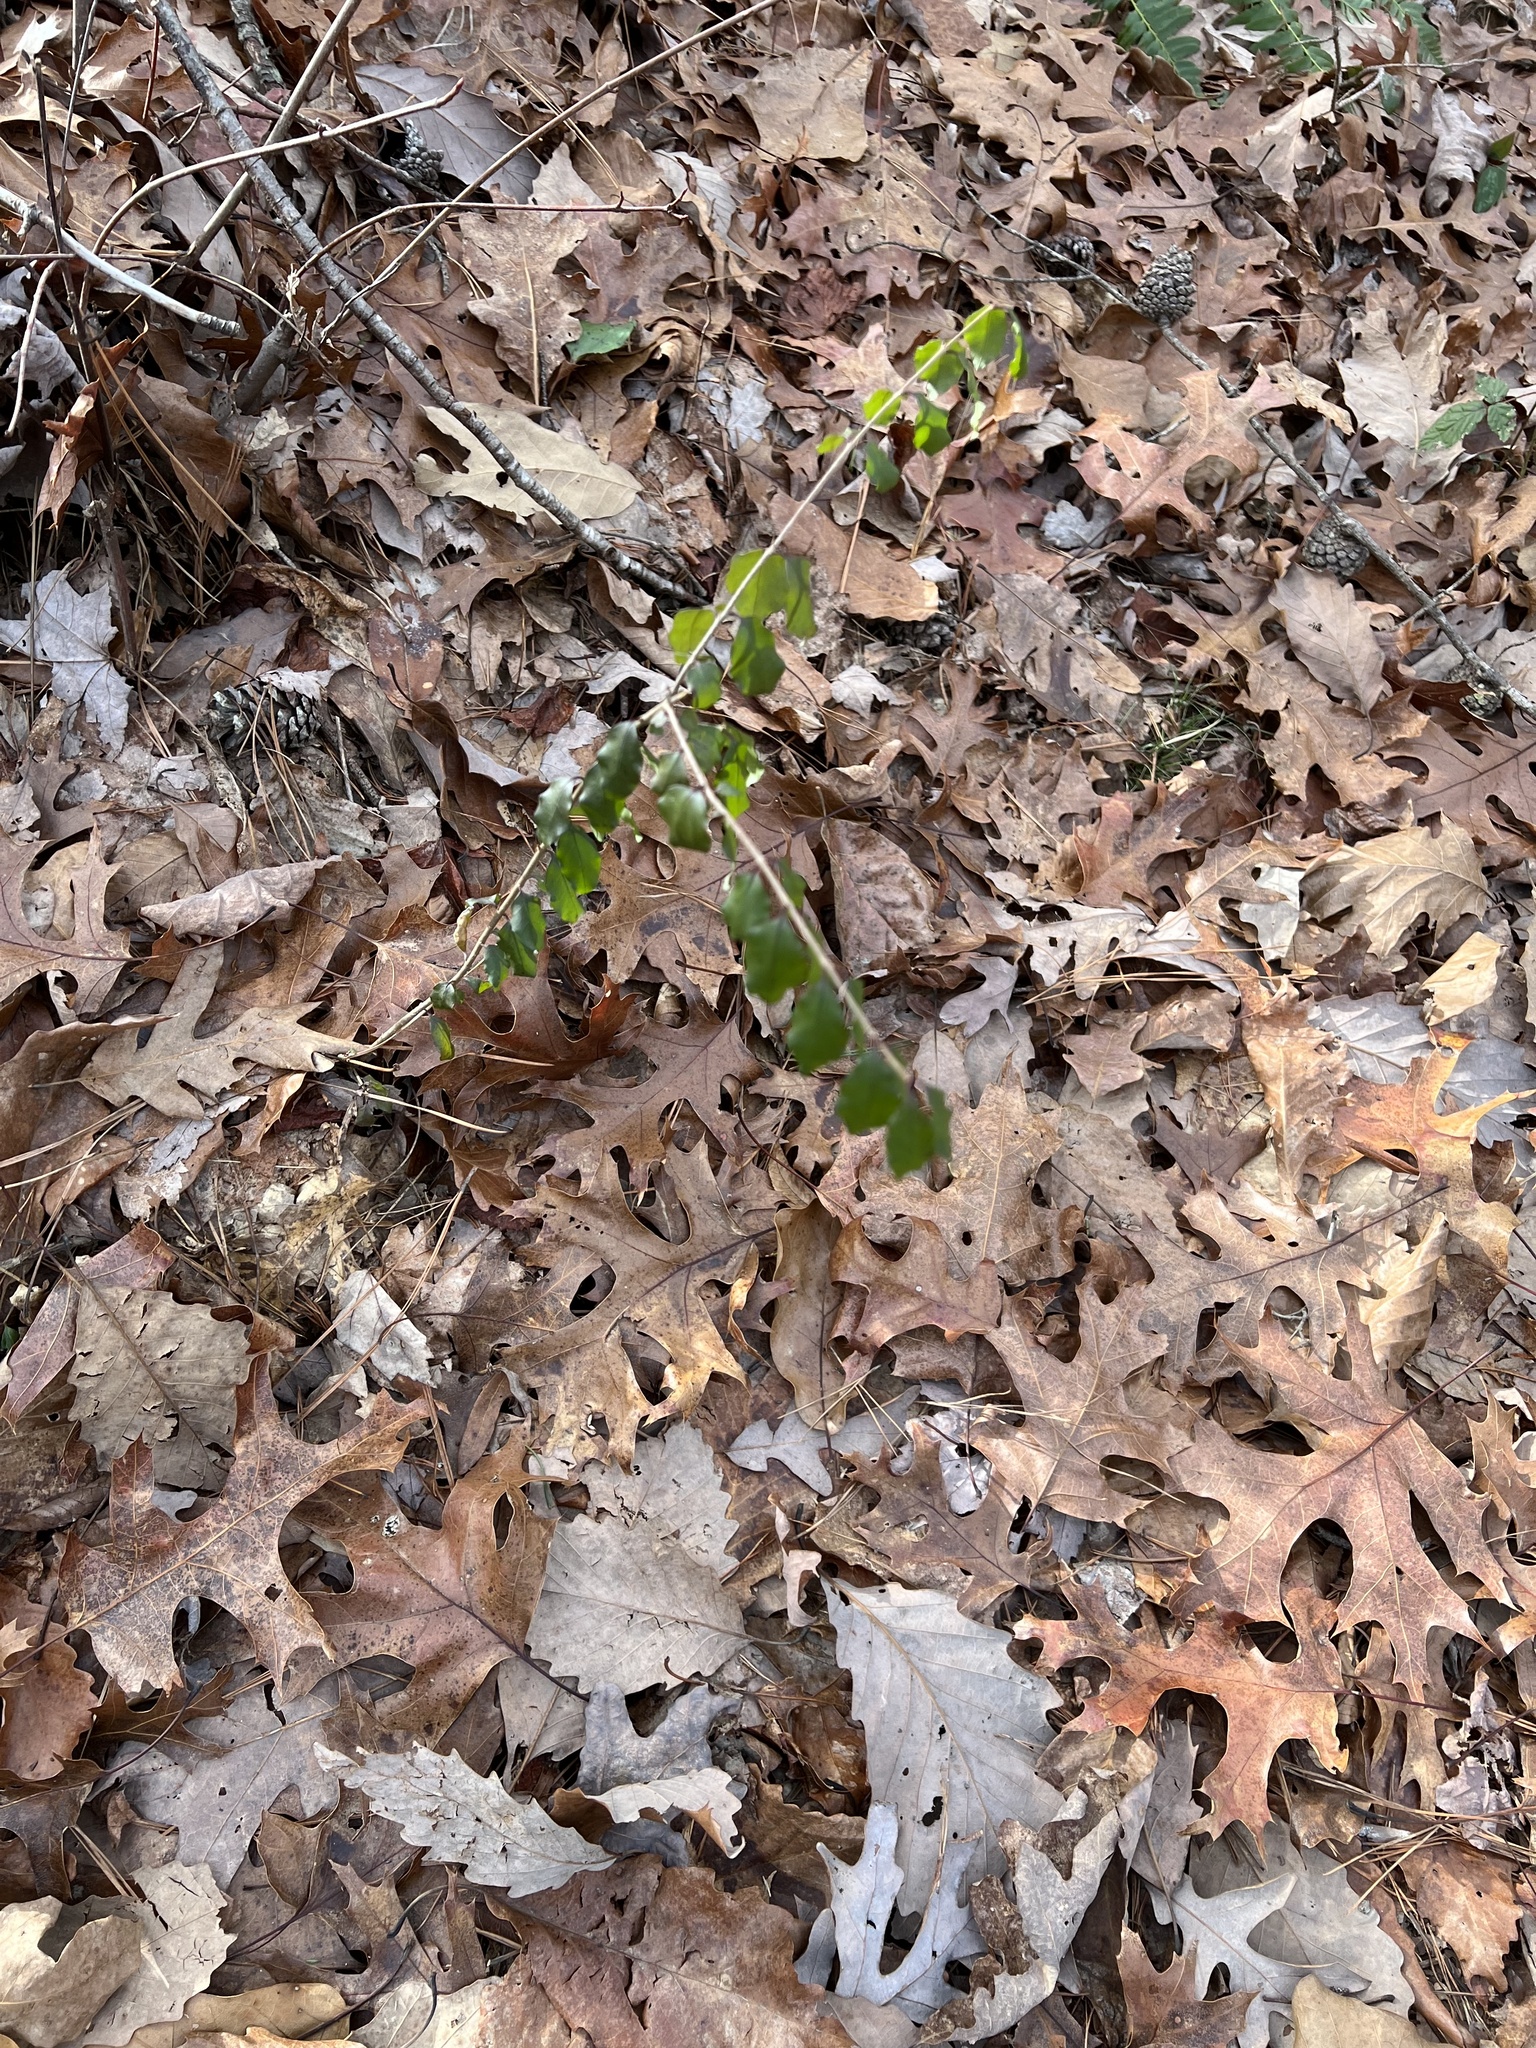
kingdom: Plantae
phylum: Tracheophyta
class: Magnoliopsida
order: Lamiales
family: Oleaceae
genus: Ligustrum
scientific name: Ligustrum sinense
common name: Chinese privet
